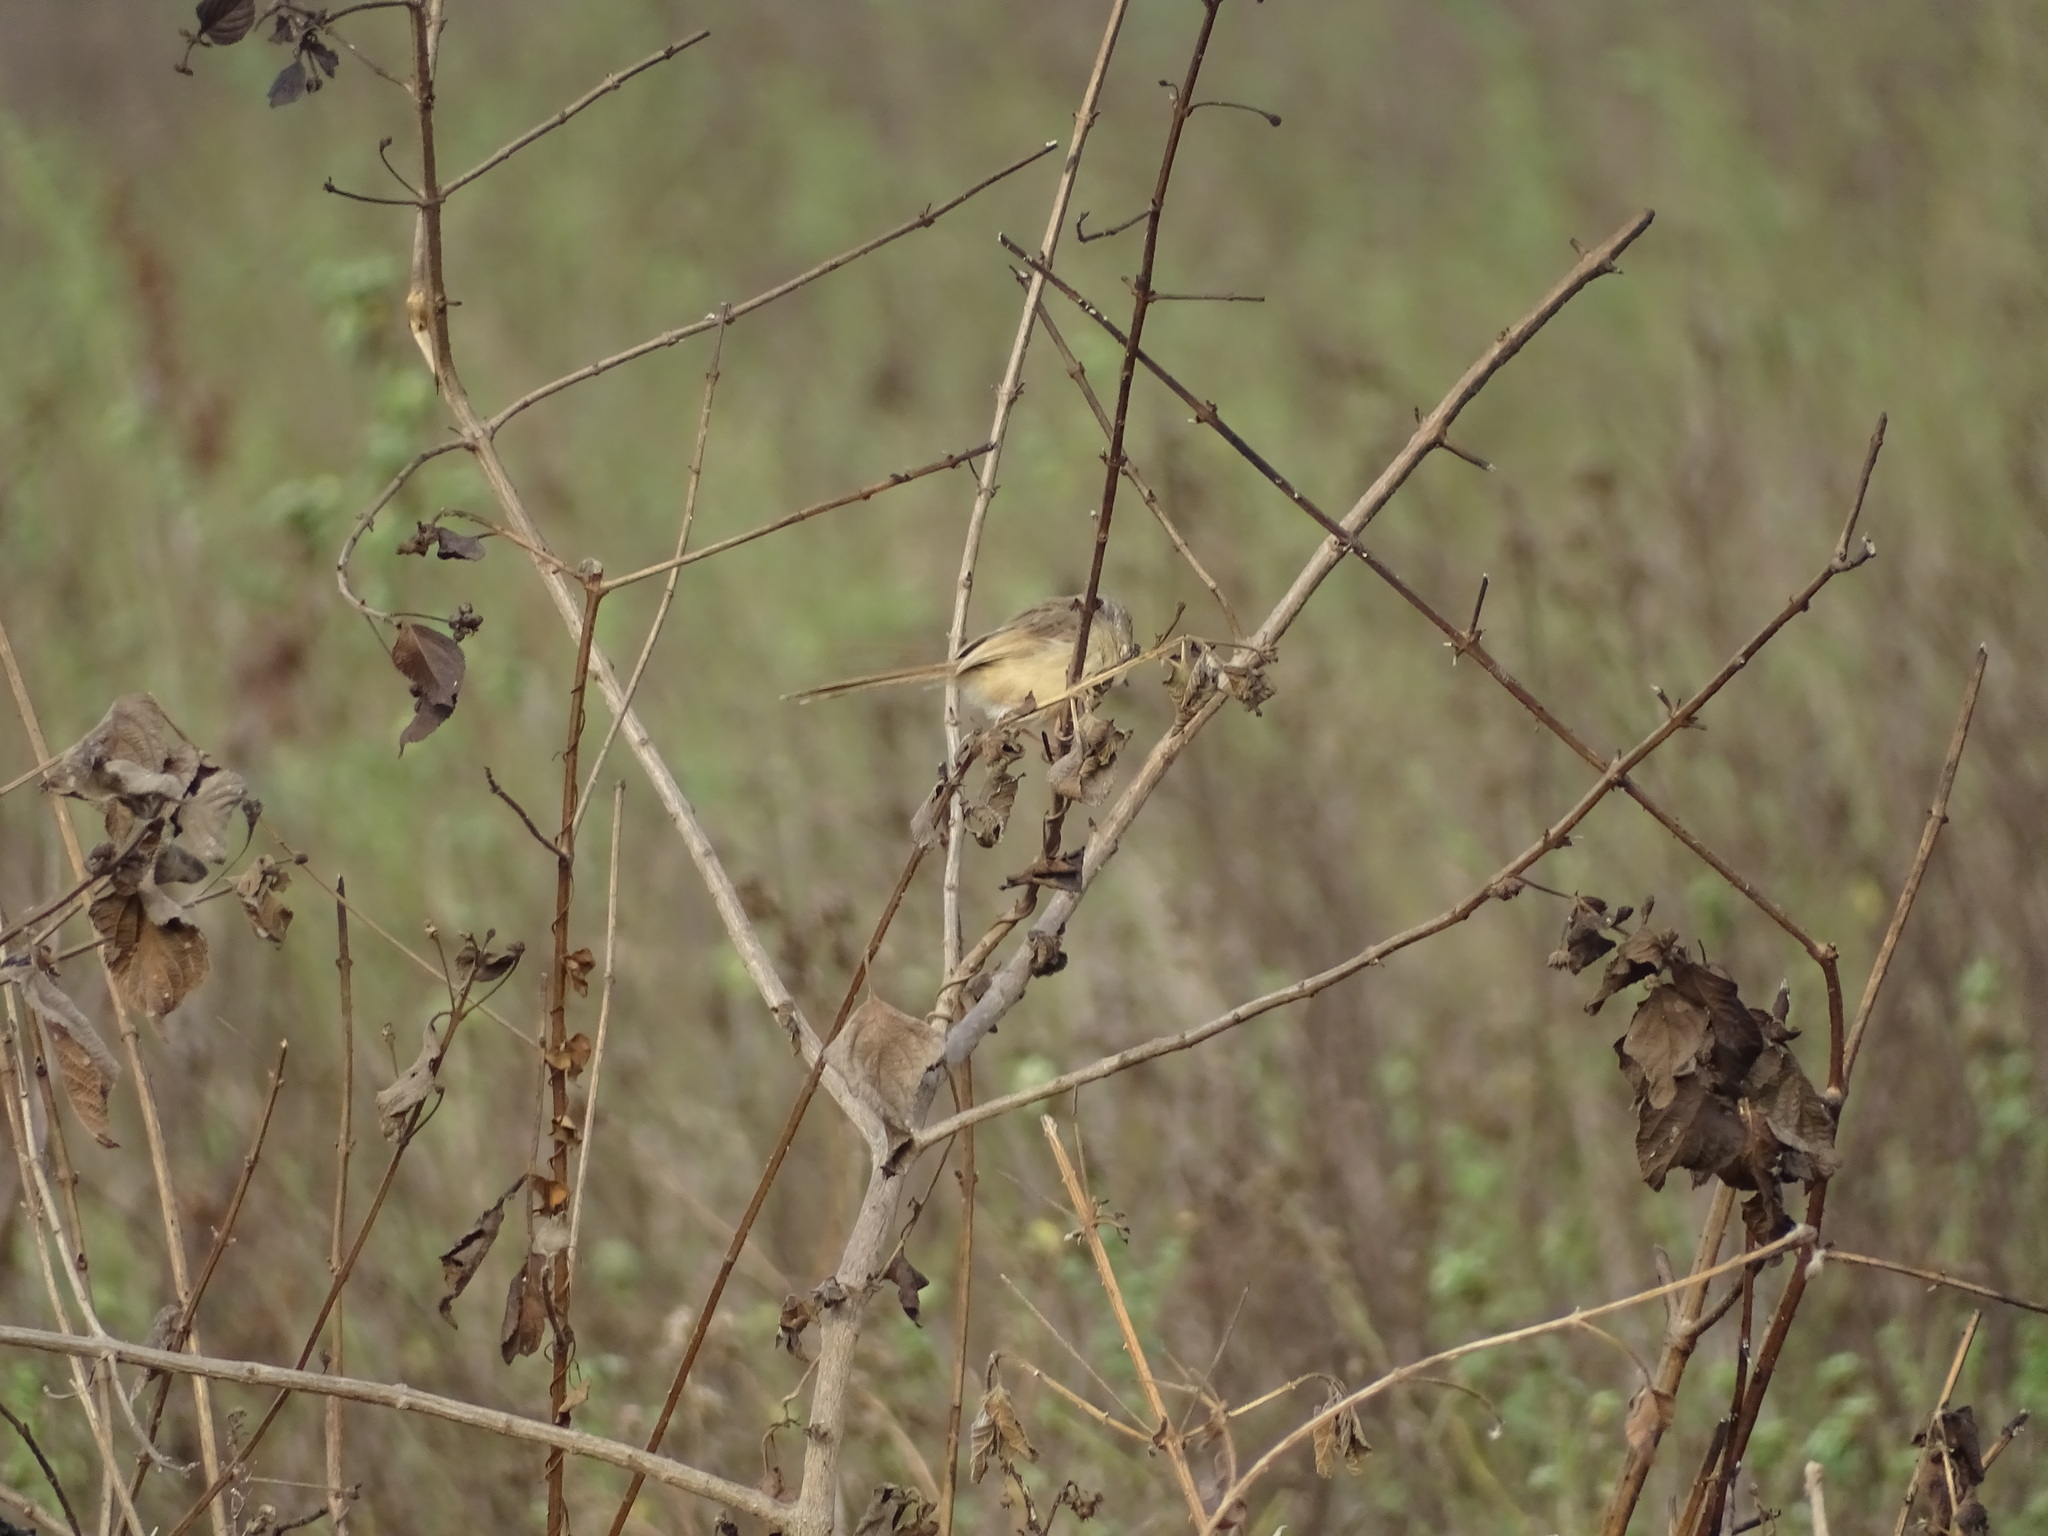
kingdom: Animalia
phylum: Chordata
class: Aves
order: Passeriformes
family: Cisticolidae
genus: Prinia
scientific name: Prinia inornata
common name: Plain prinia
